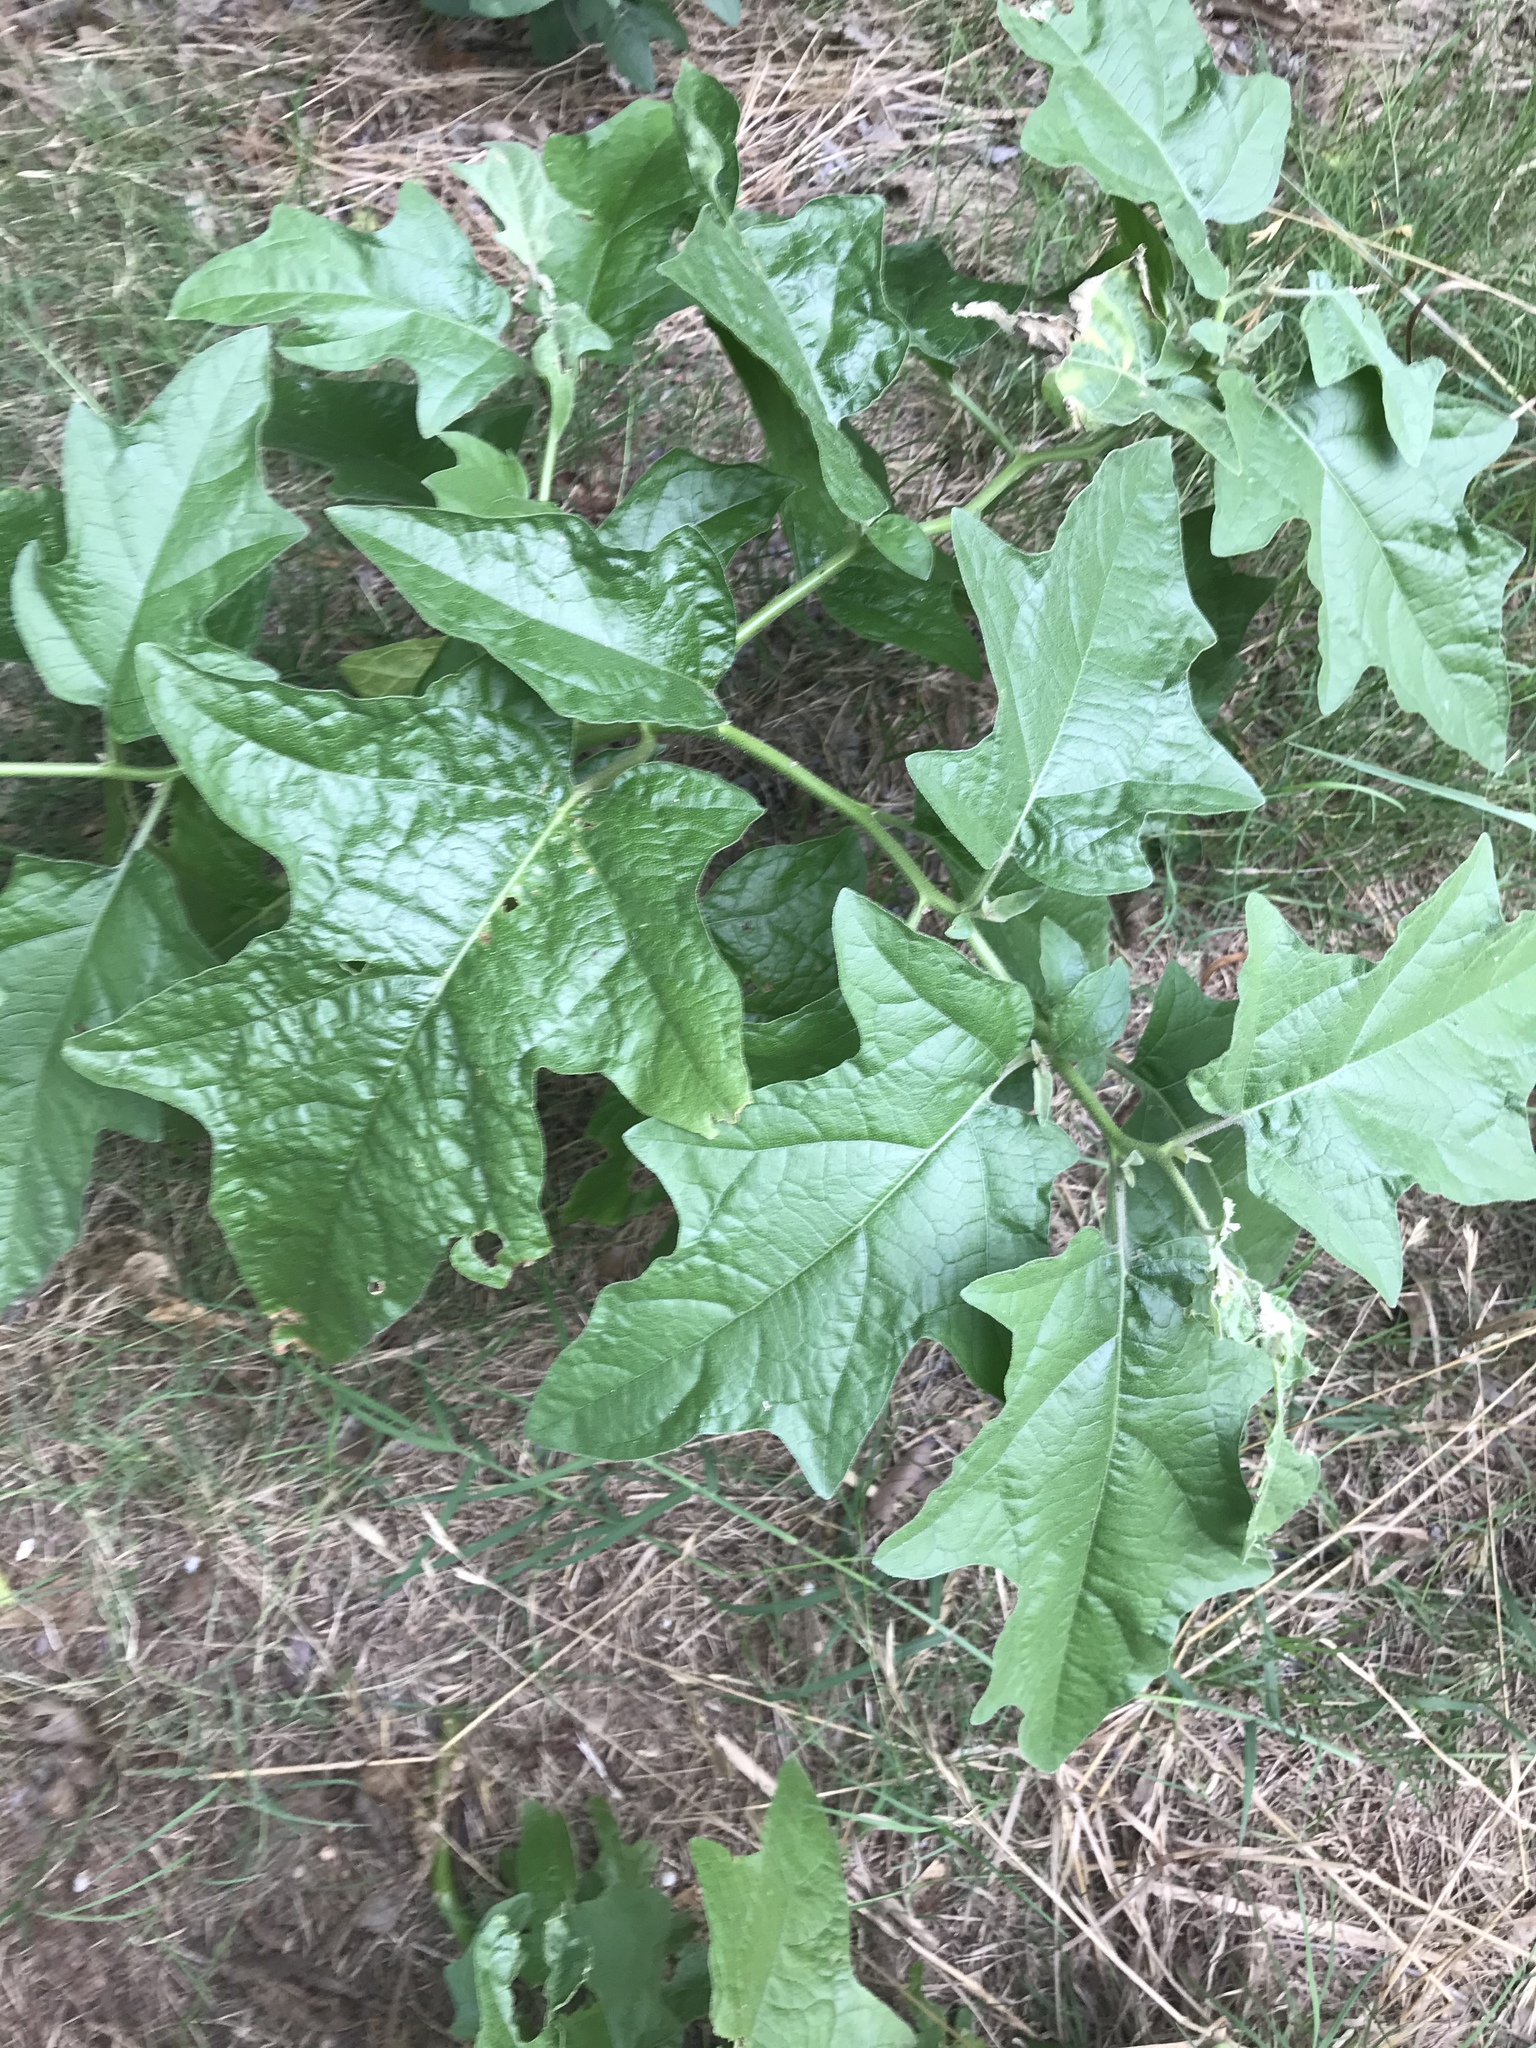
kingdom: Plantae
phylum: Tracheophyta
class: Magnoliopsida
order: Solanales
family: Solanaceae
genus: Solanum
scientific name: Solanum dimidiatum
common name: Carolina horse-nettle
